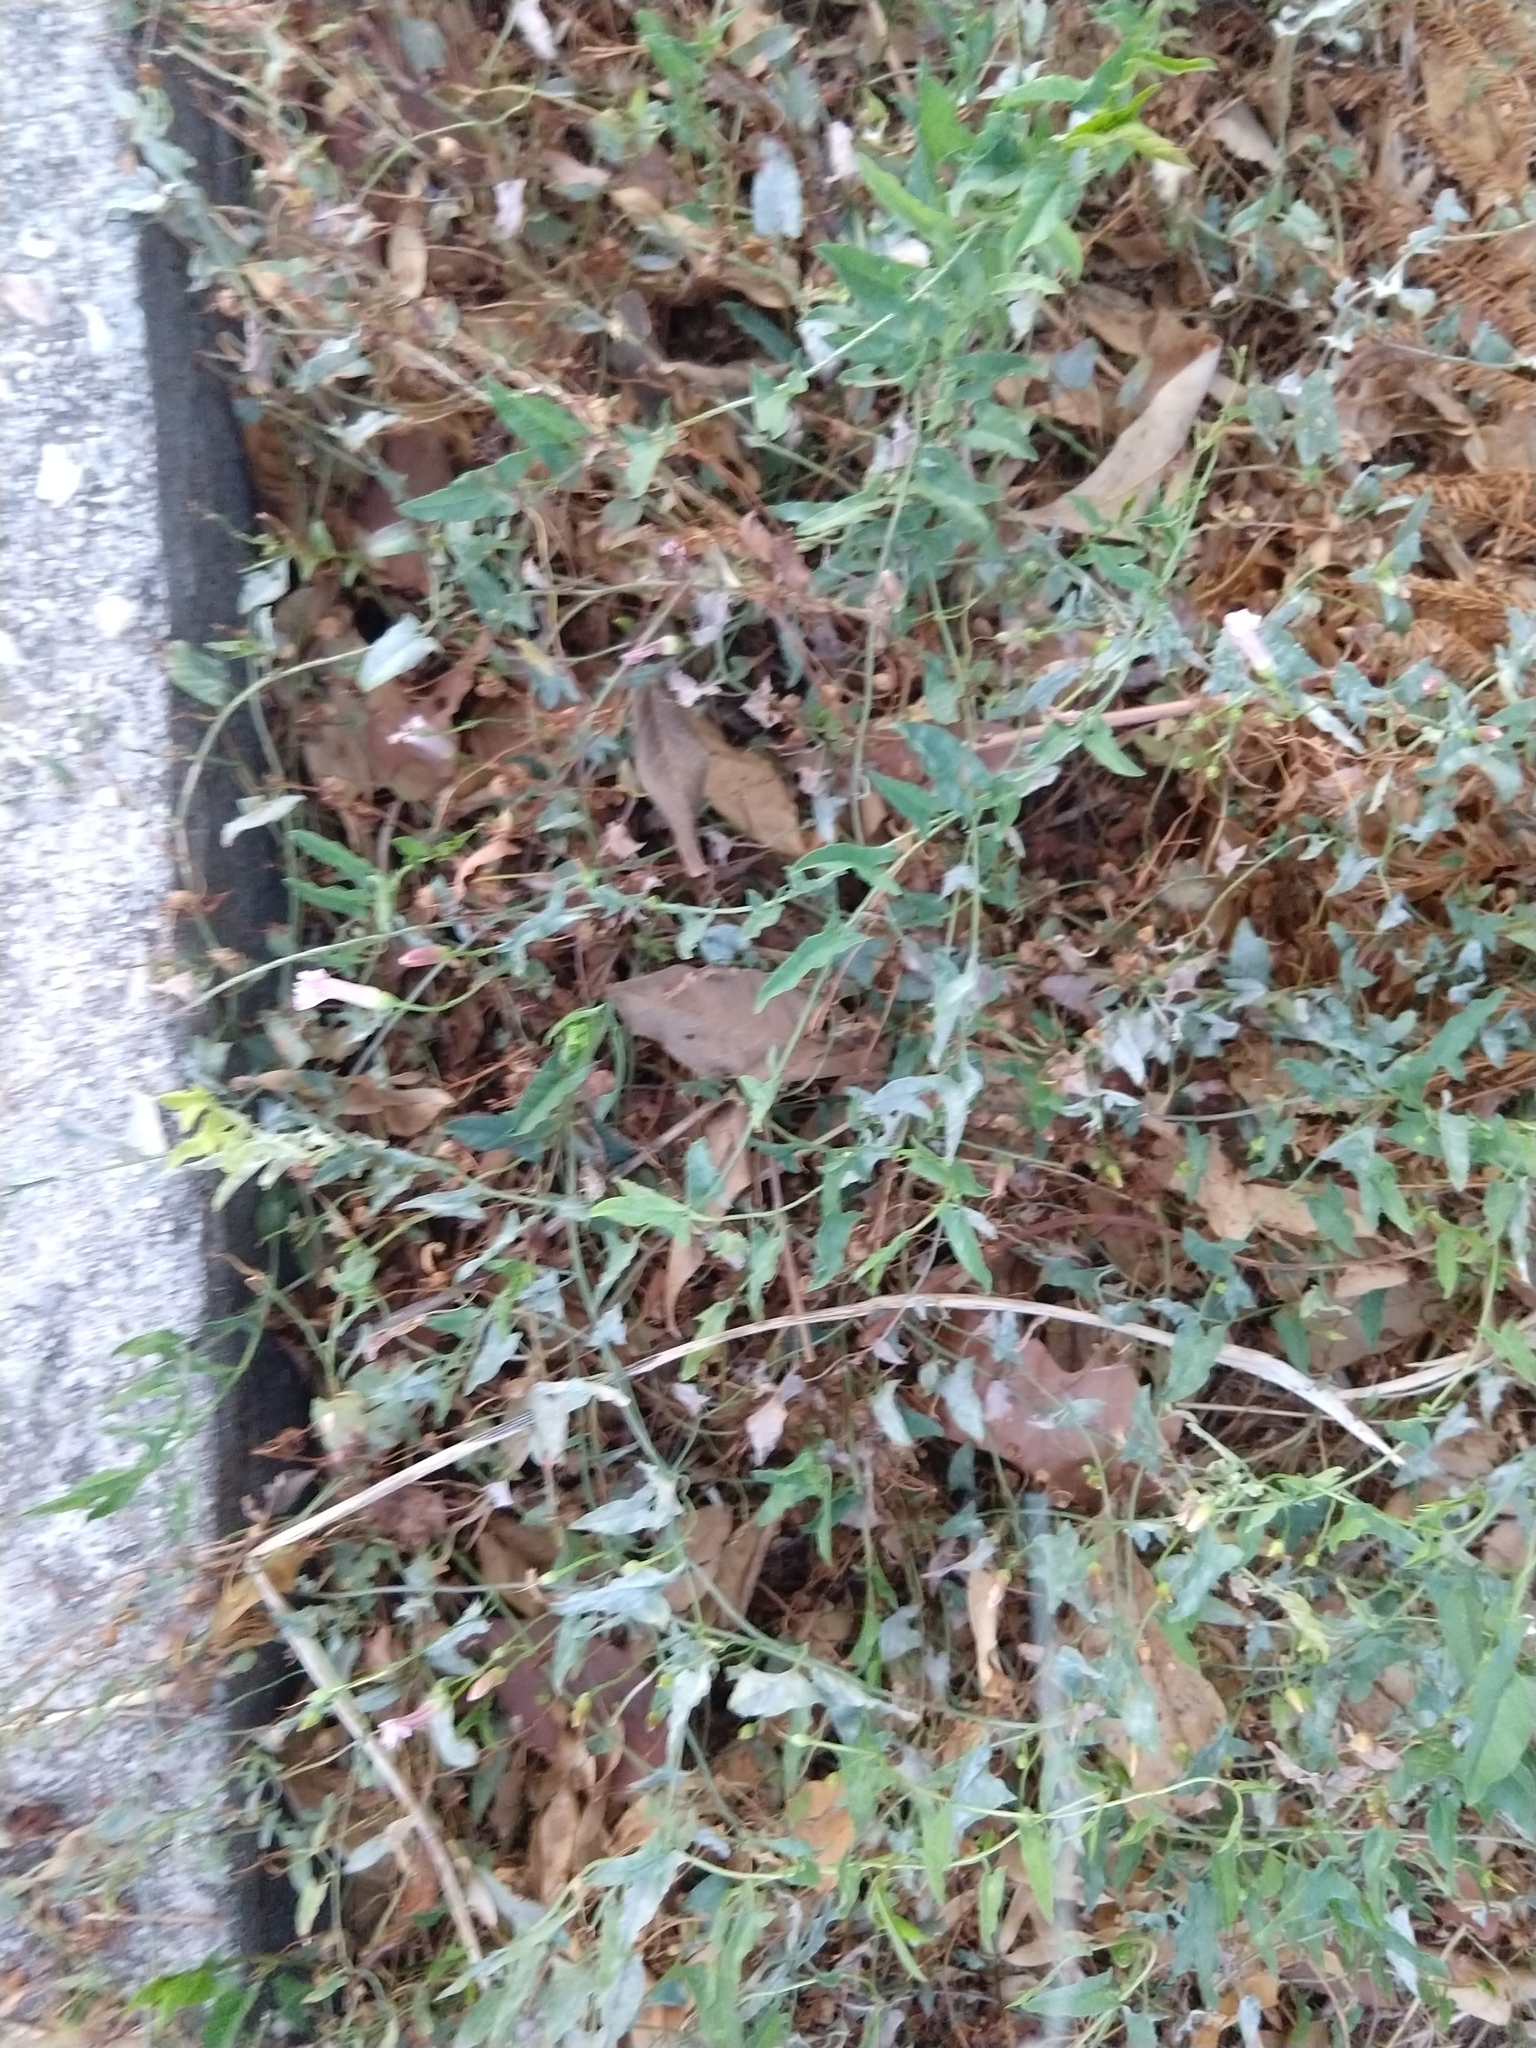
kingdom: Plantae
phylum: Tracheophyta
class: Magnoliopsida
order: Solanales
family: Convolvulaceae
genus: Convolvulus
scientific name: Convolvulus arvensis
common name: Field bindweed
